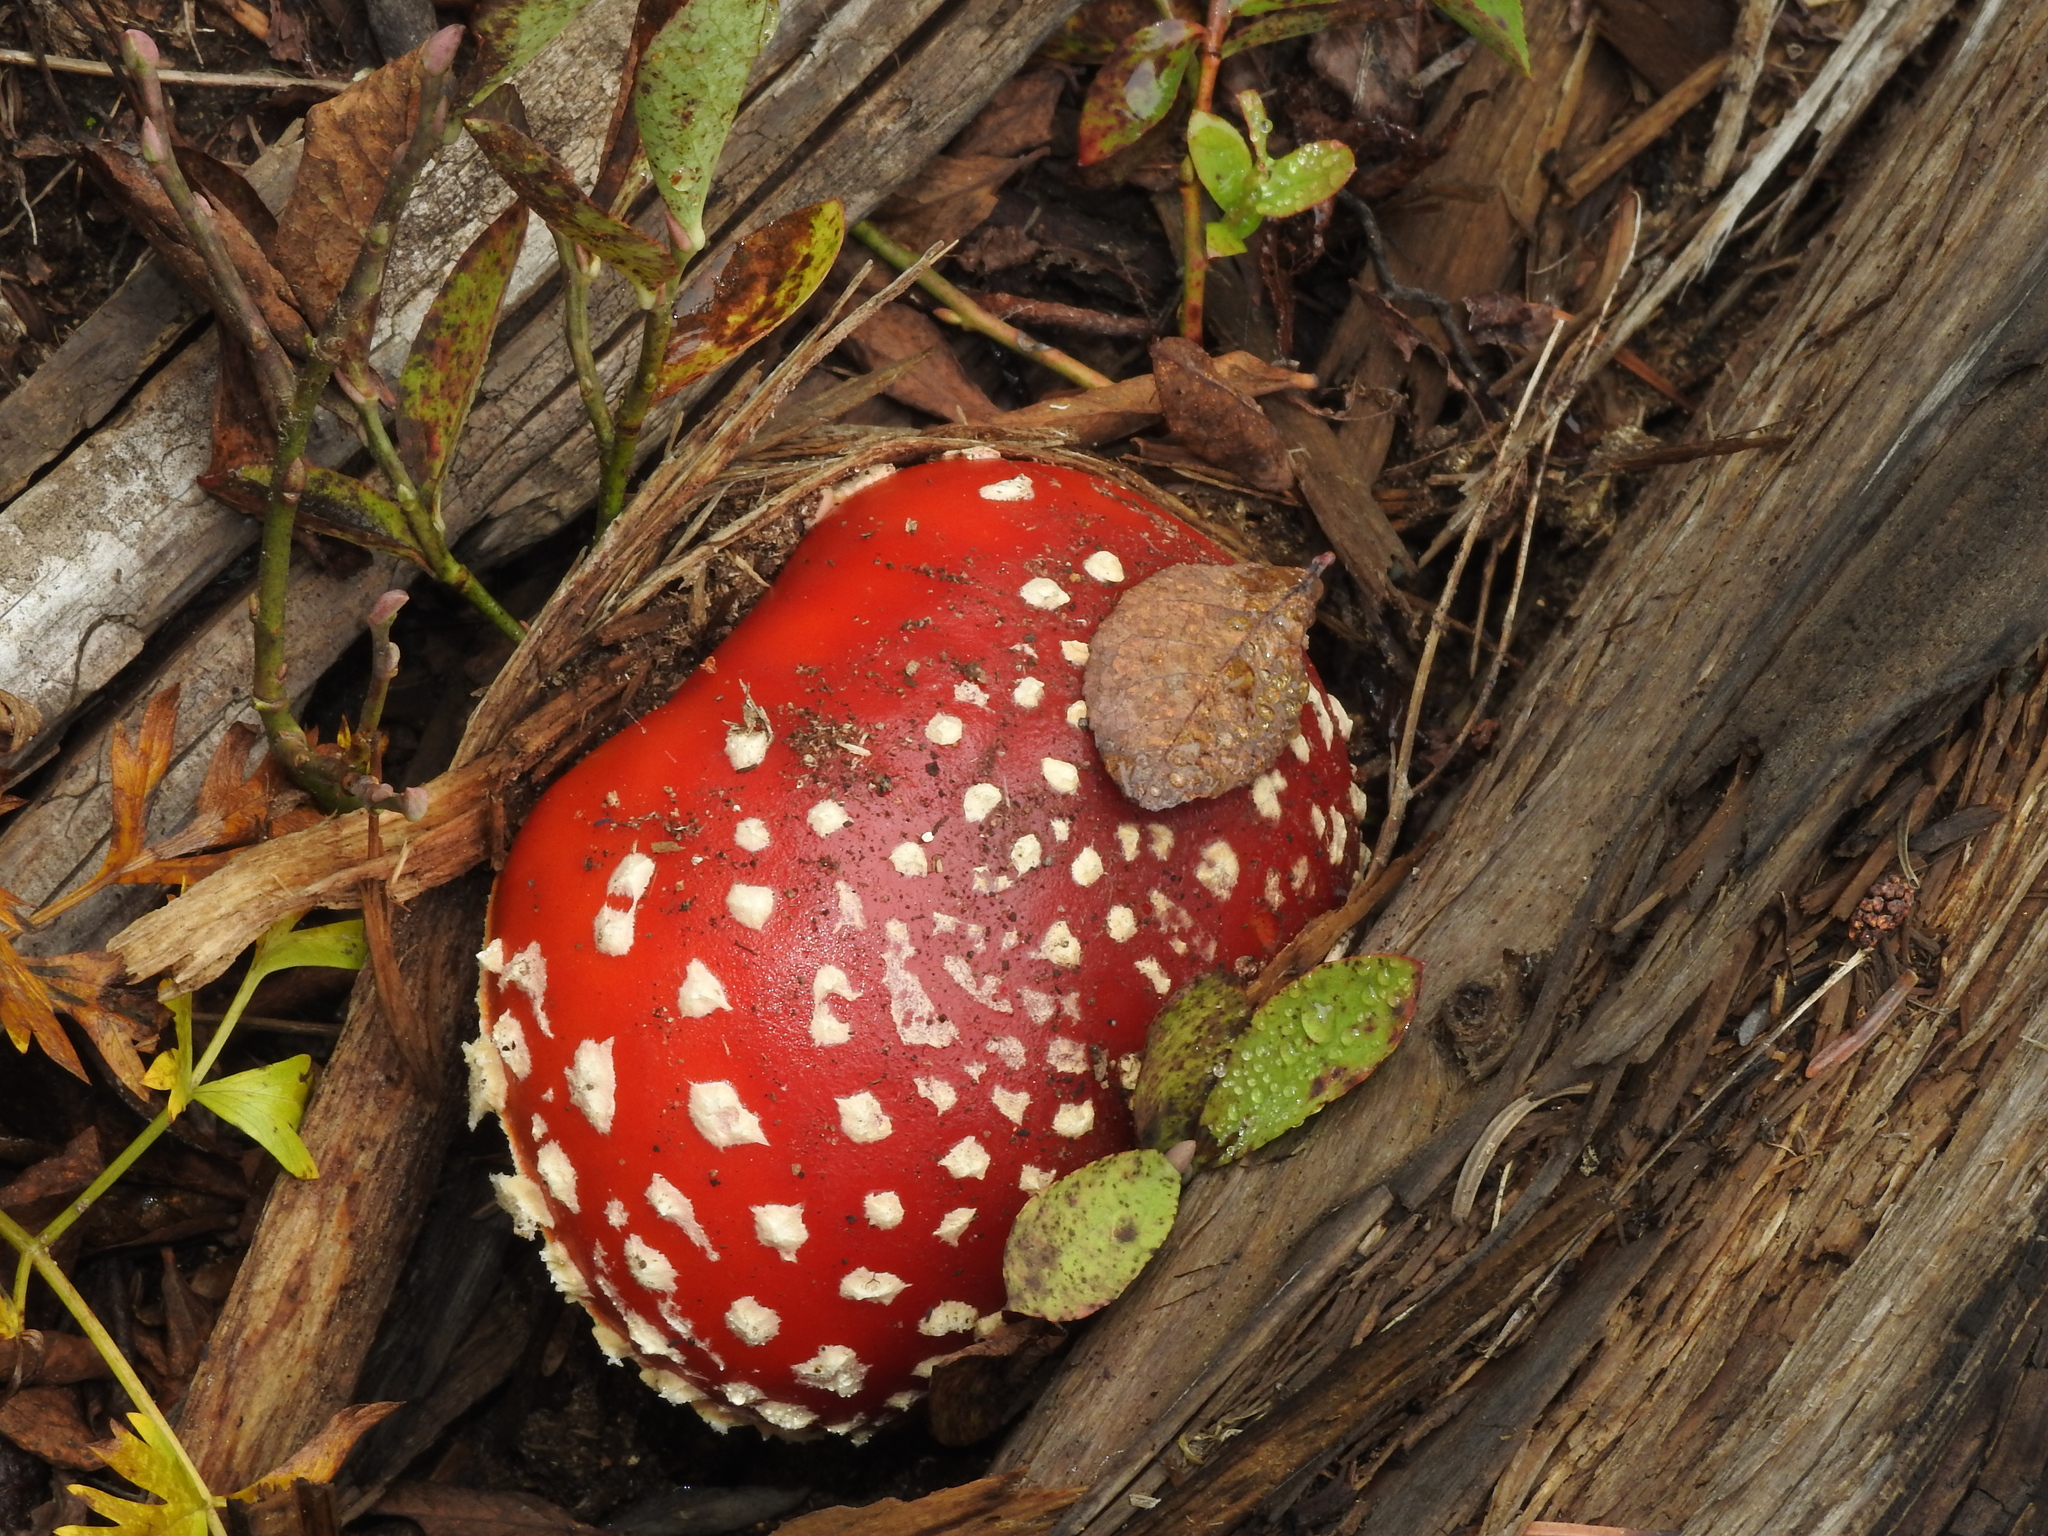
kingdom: Fungi
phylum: Basidiomycota
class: Agaricomycetes
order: Agaricales
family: Amanitaceae
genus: Amanita
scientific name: Amanita muscaria
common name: Fly agaric
